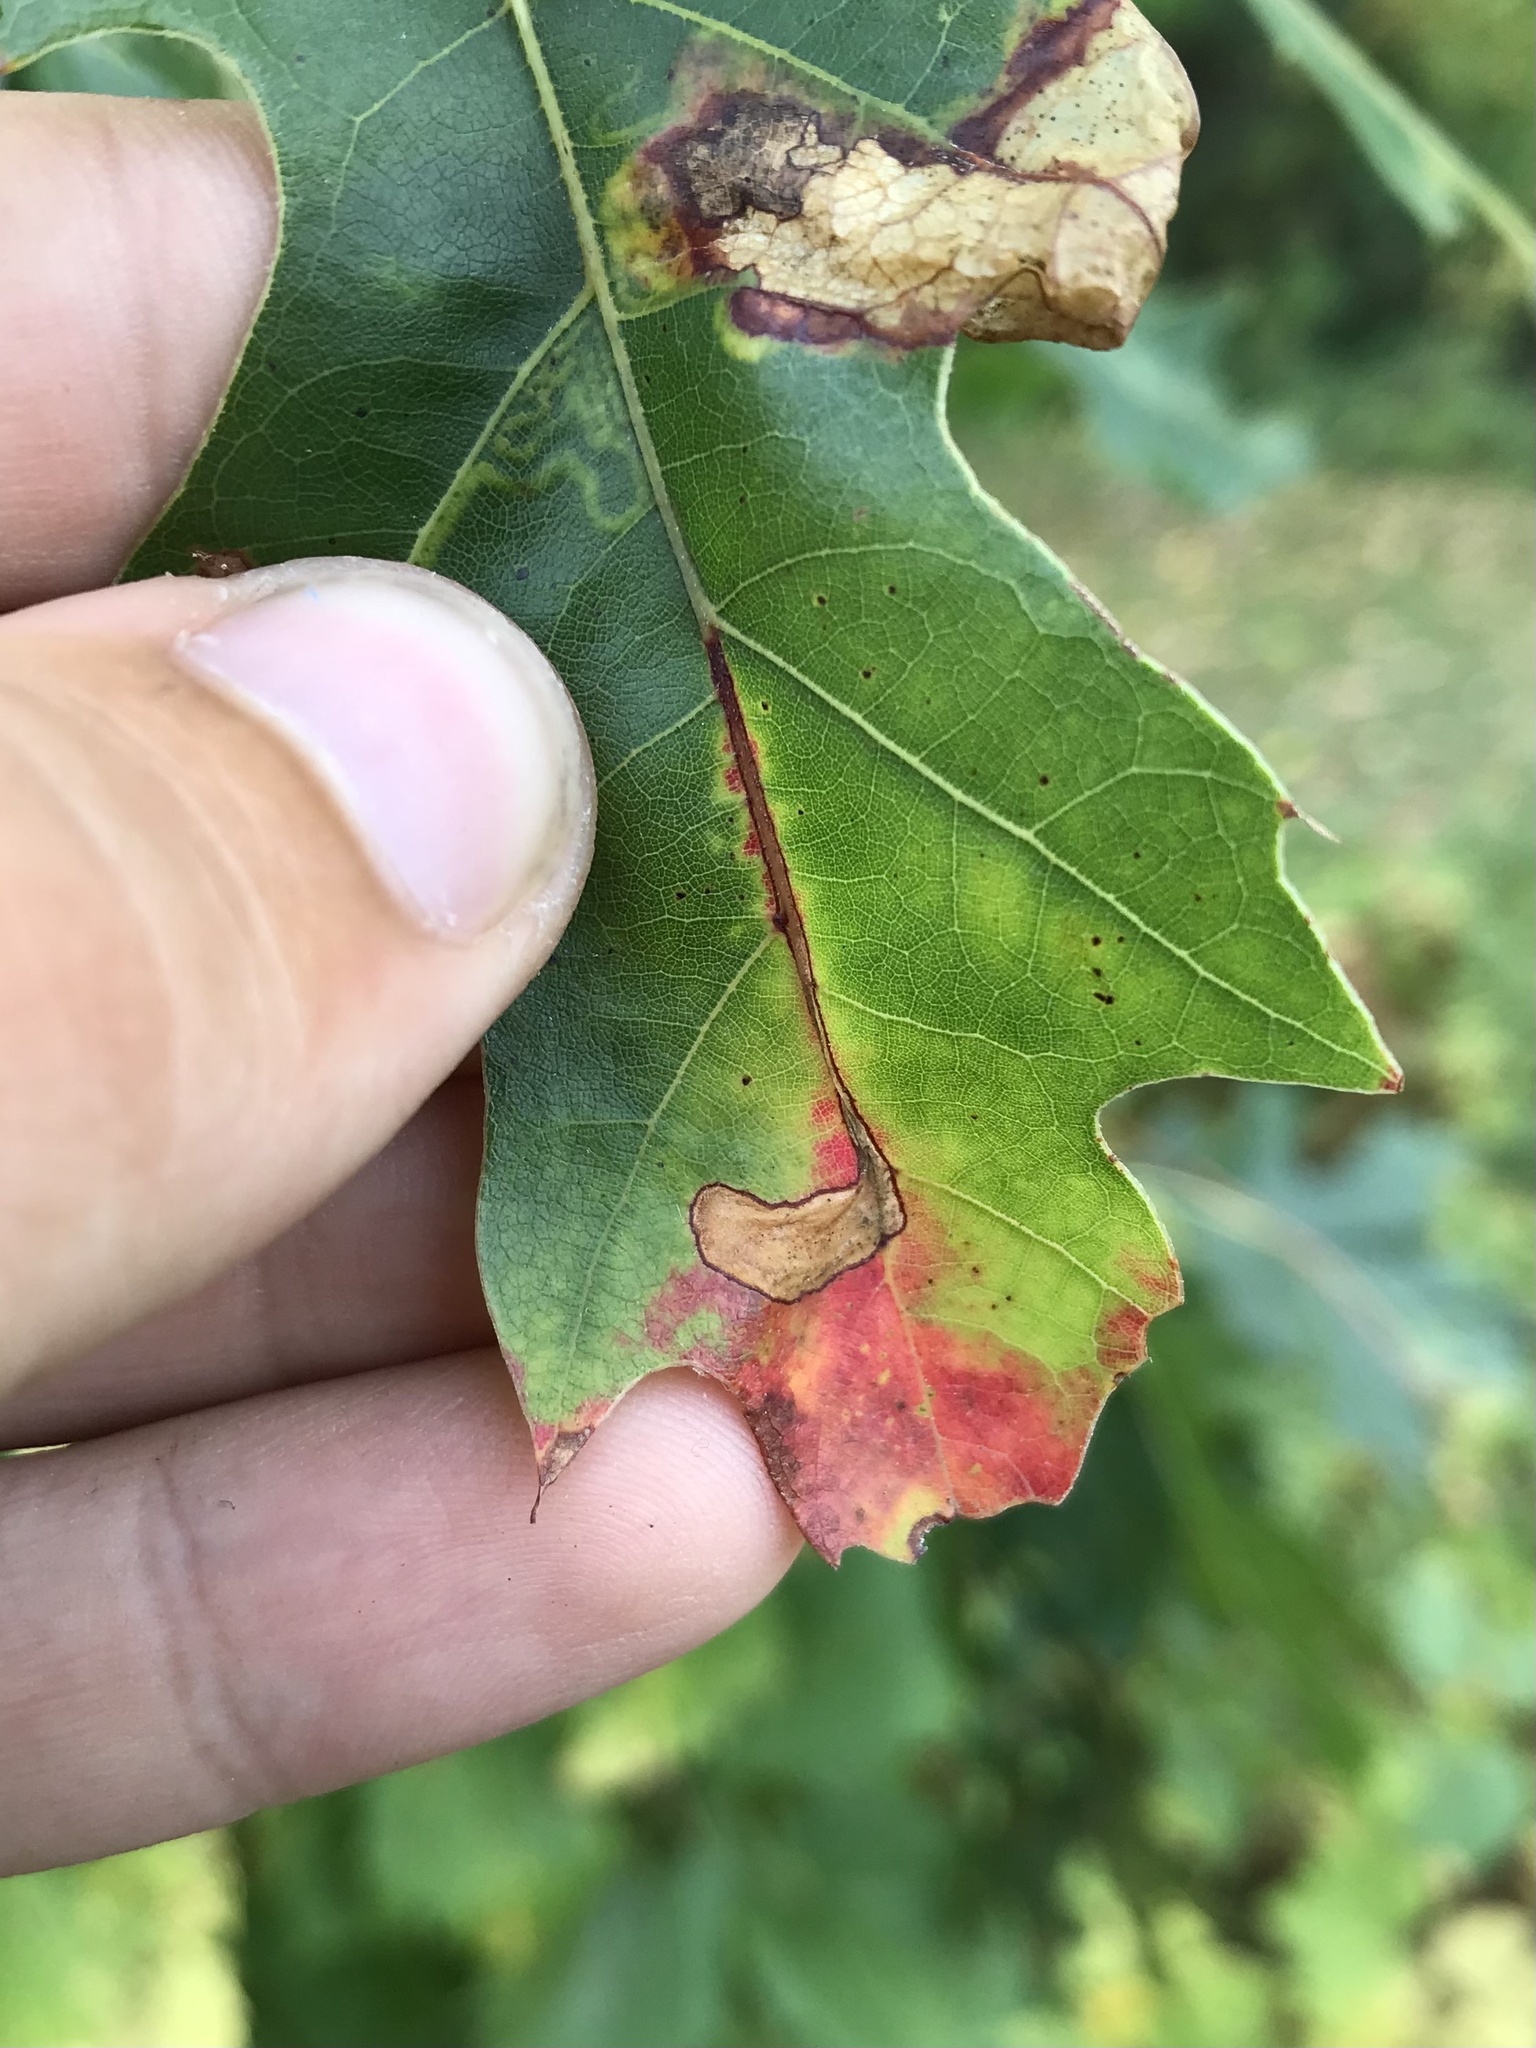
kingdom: Animalia
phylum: Arthropoda
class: Insecta
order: Lepidoptera
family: Gracillariidae
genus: Neurobathra
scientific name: Neurobathra strigifinitella
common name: Finite-channeled leafminer moth
